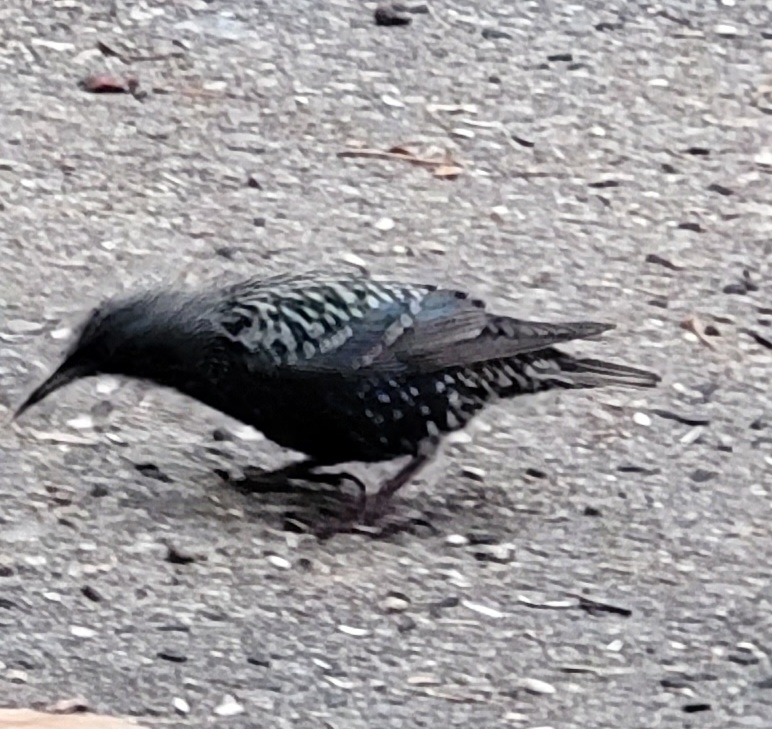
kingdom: Animalia
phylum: Chordata
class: Aves
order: Passeriformes
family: Sturnidae
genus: Sturnus
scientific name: Sturnus vulgaris
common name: Common starling
